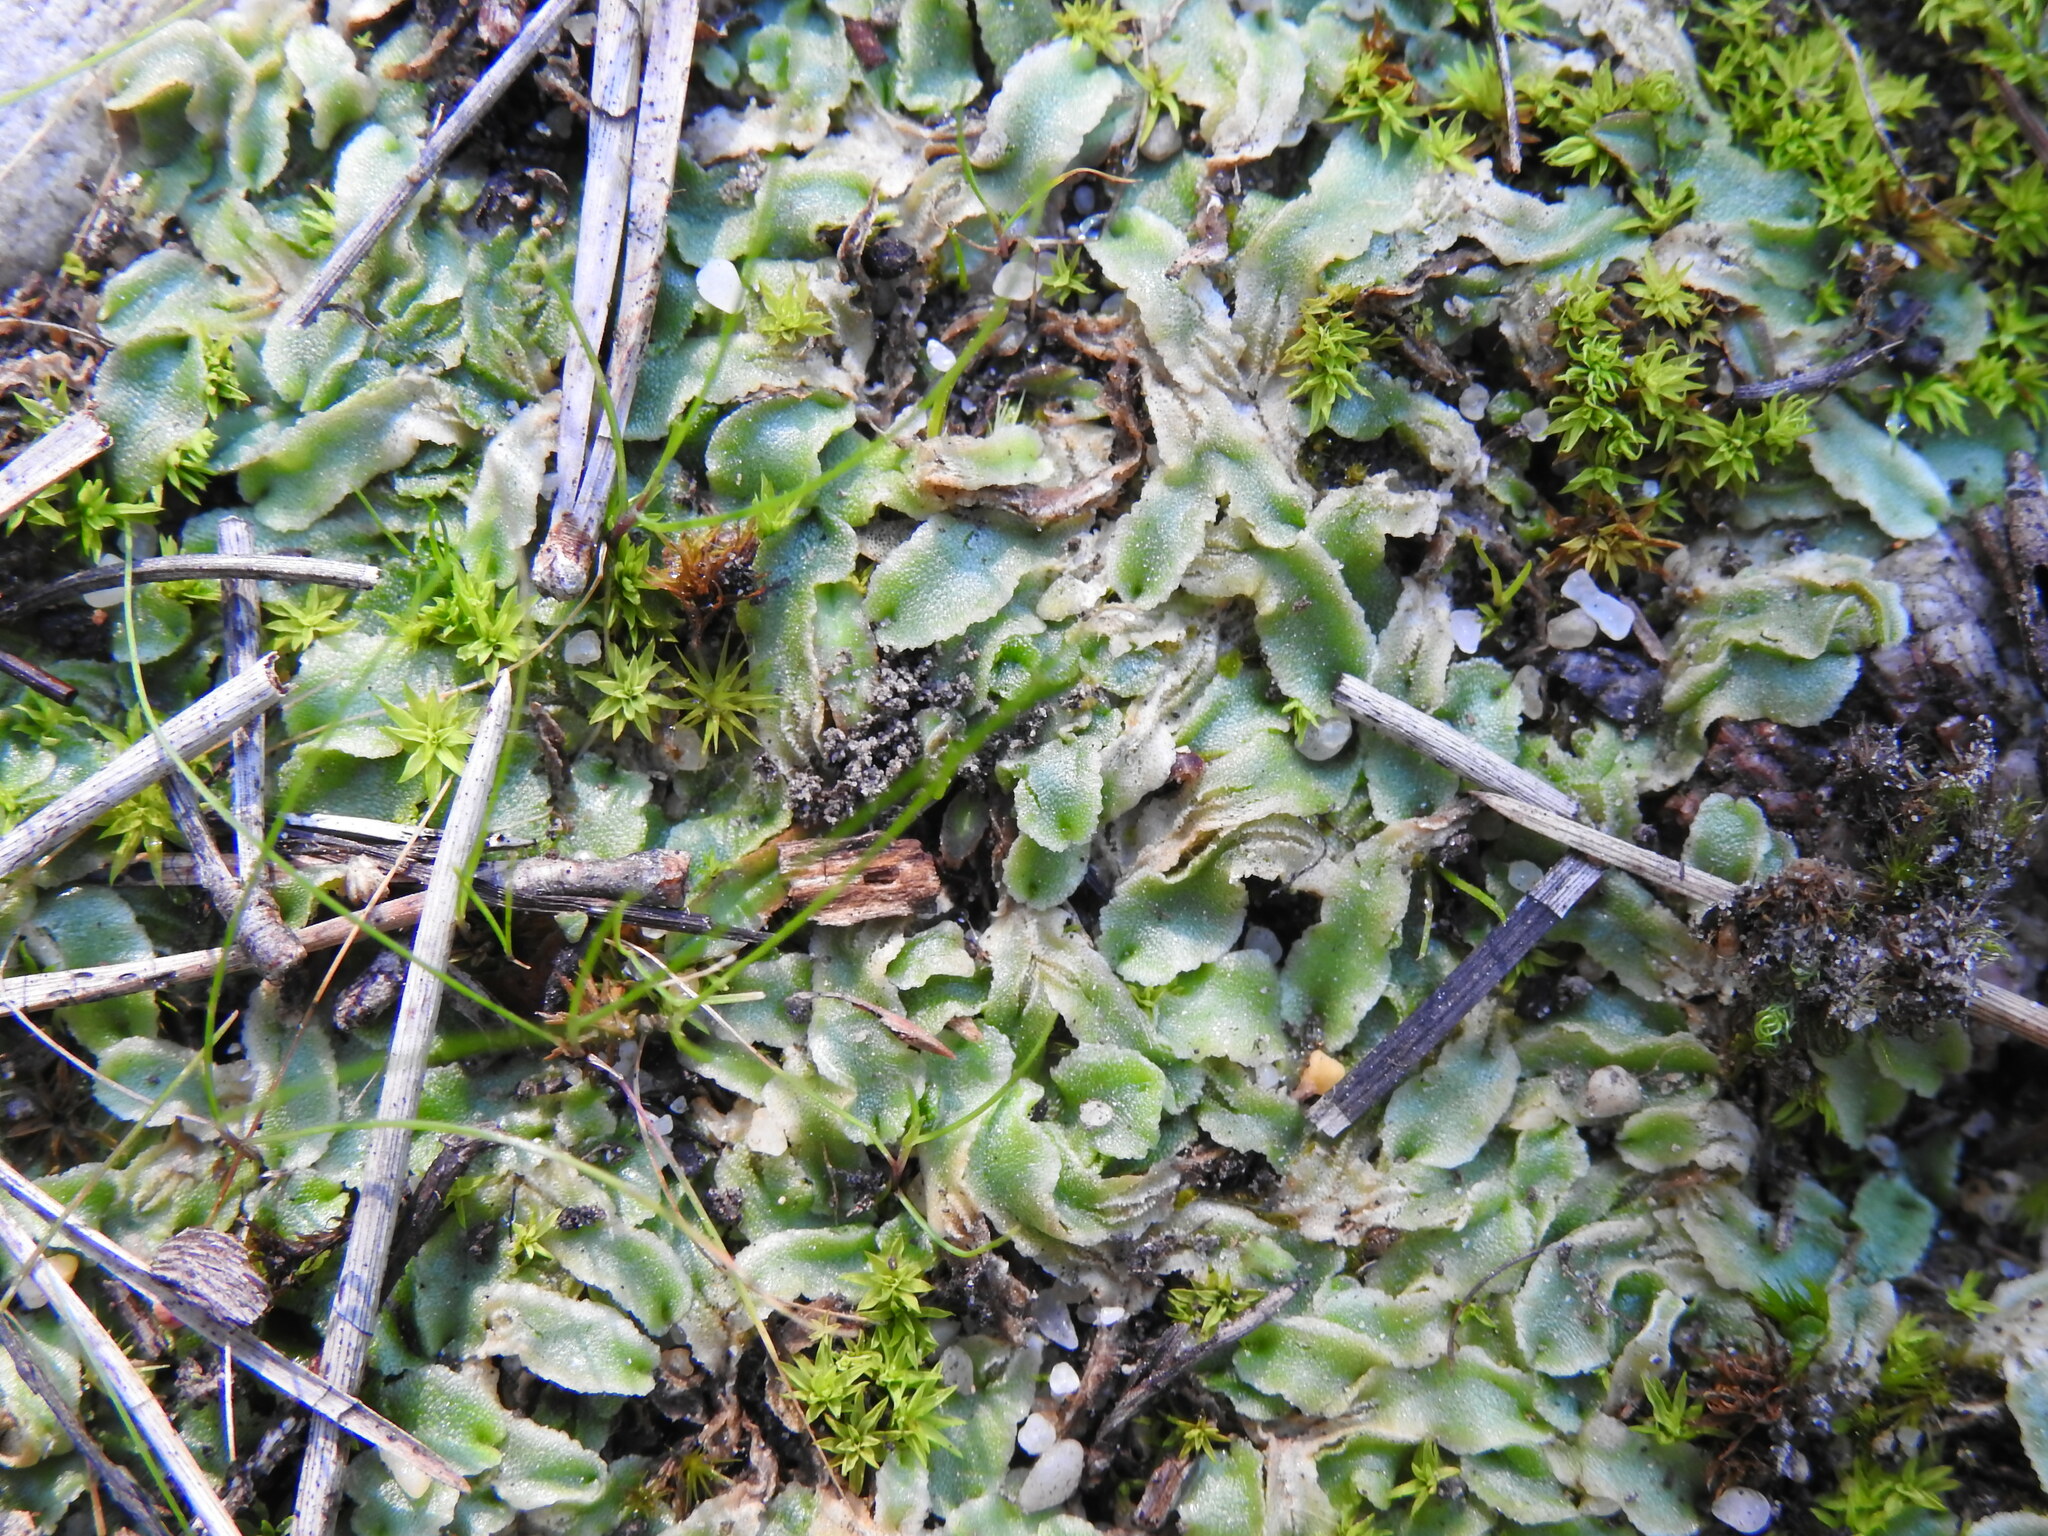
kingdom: Plantae
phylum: Marchantiophyta
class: Marchantiopsida
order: Marchantiales
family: Corsiniaceae
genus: Corsinia
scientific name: Corsinia coriandrina
